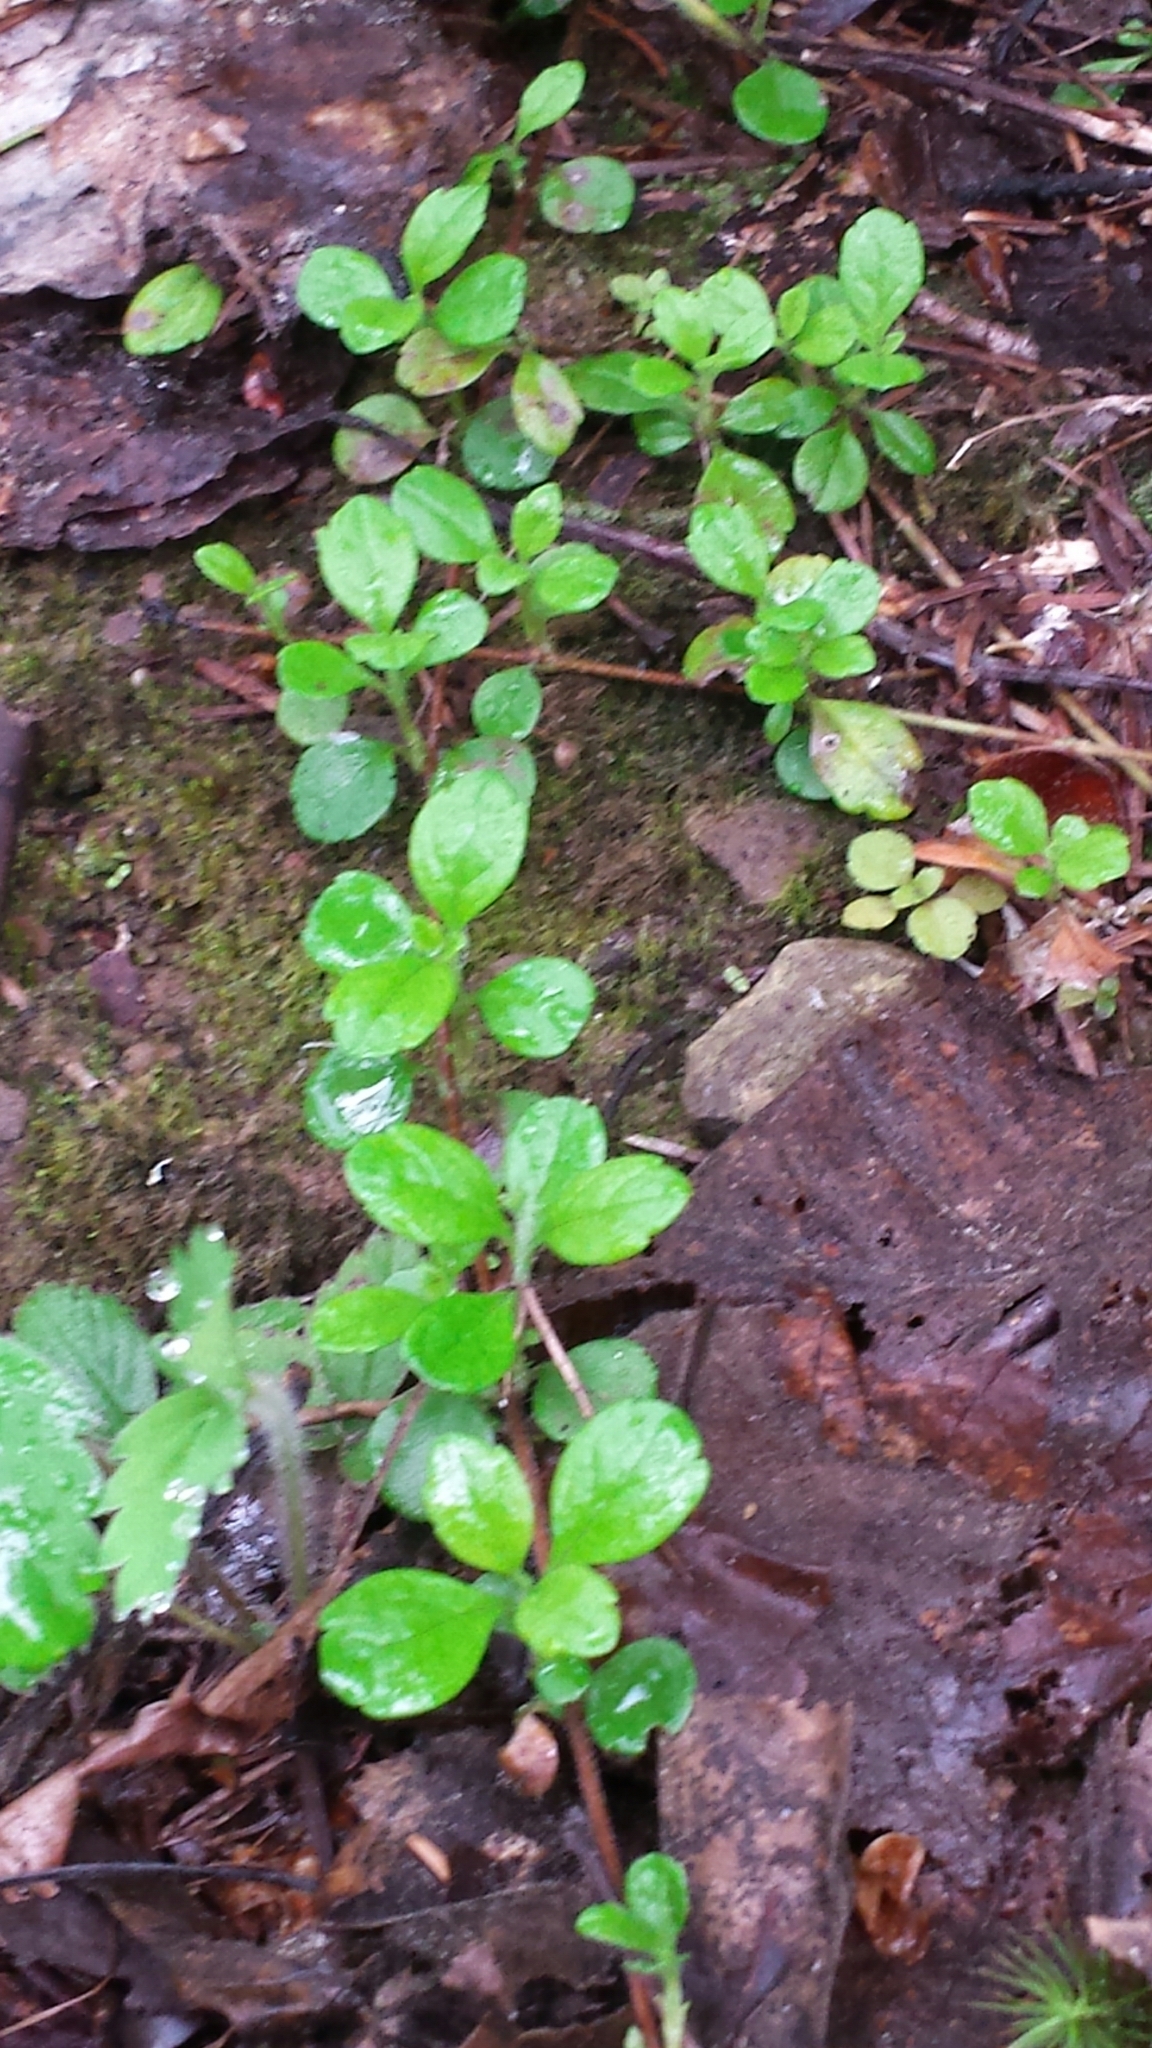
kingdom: Plantae
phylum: Tracheophyta
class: Magnoliopsida
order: Dipsacales
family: Caprifoliaceae
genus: Linnaea
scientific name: Linnaea borealis
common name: Twinflower
